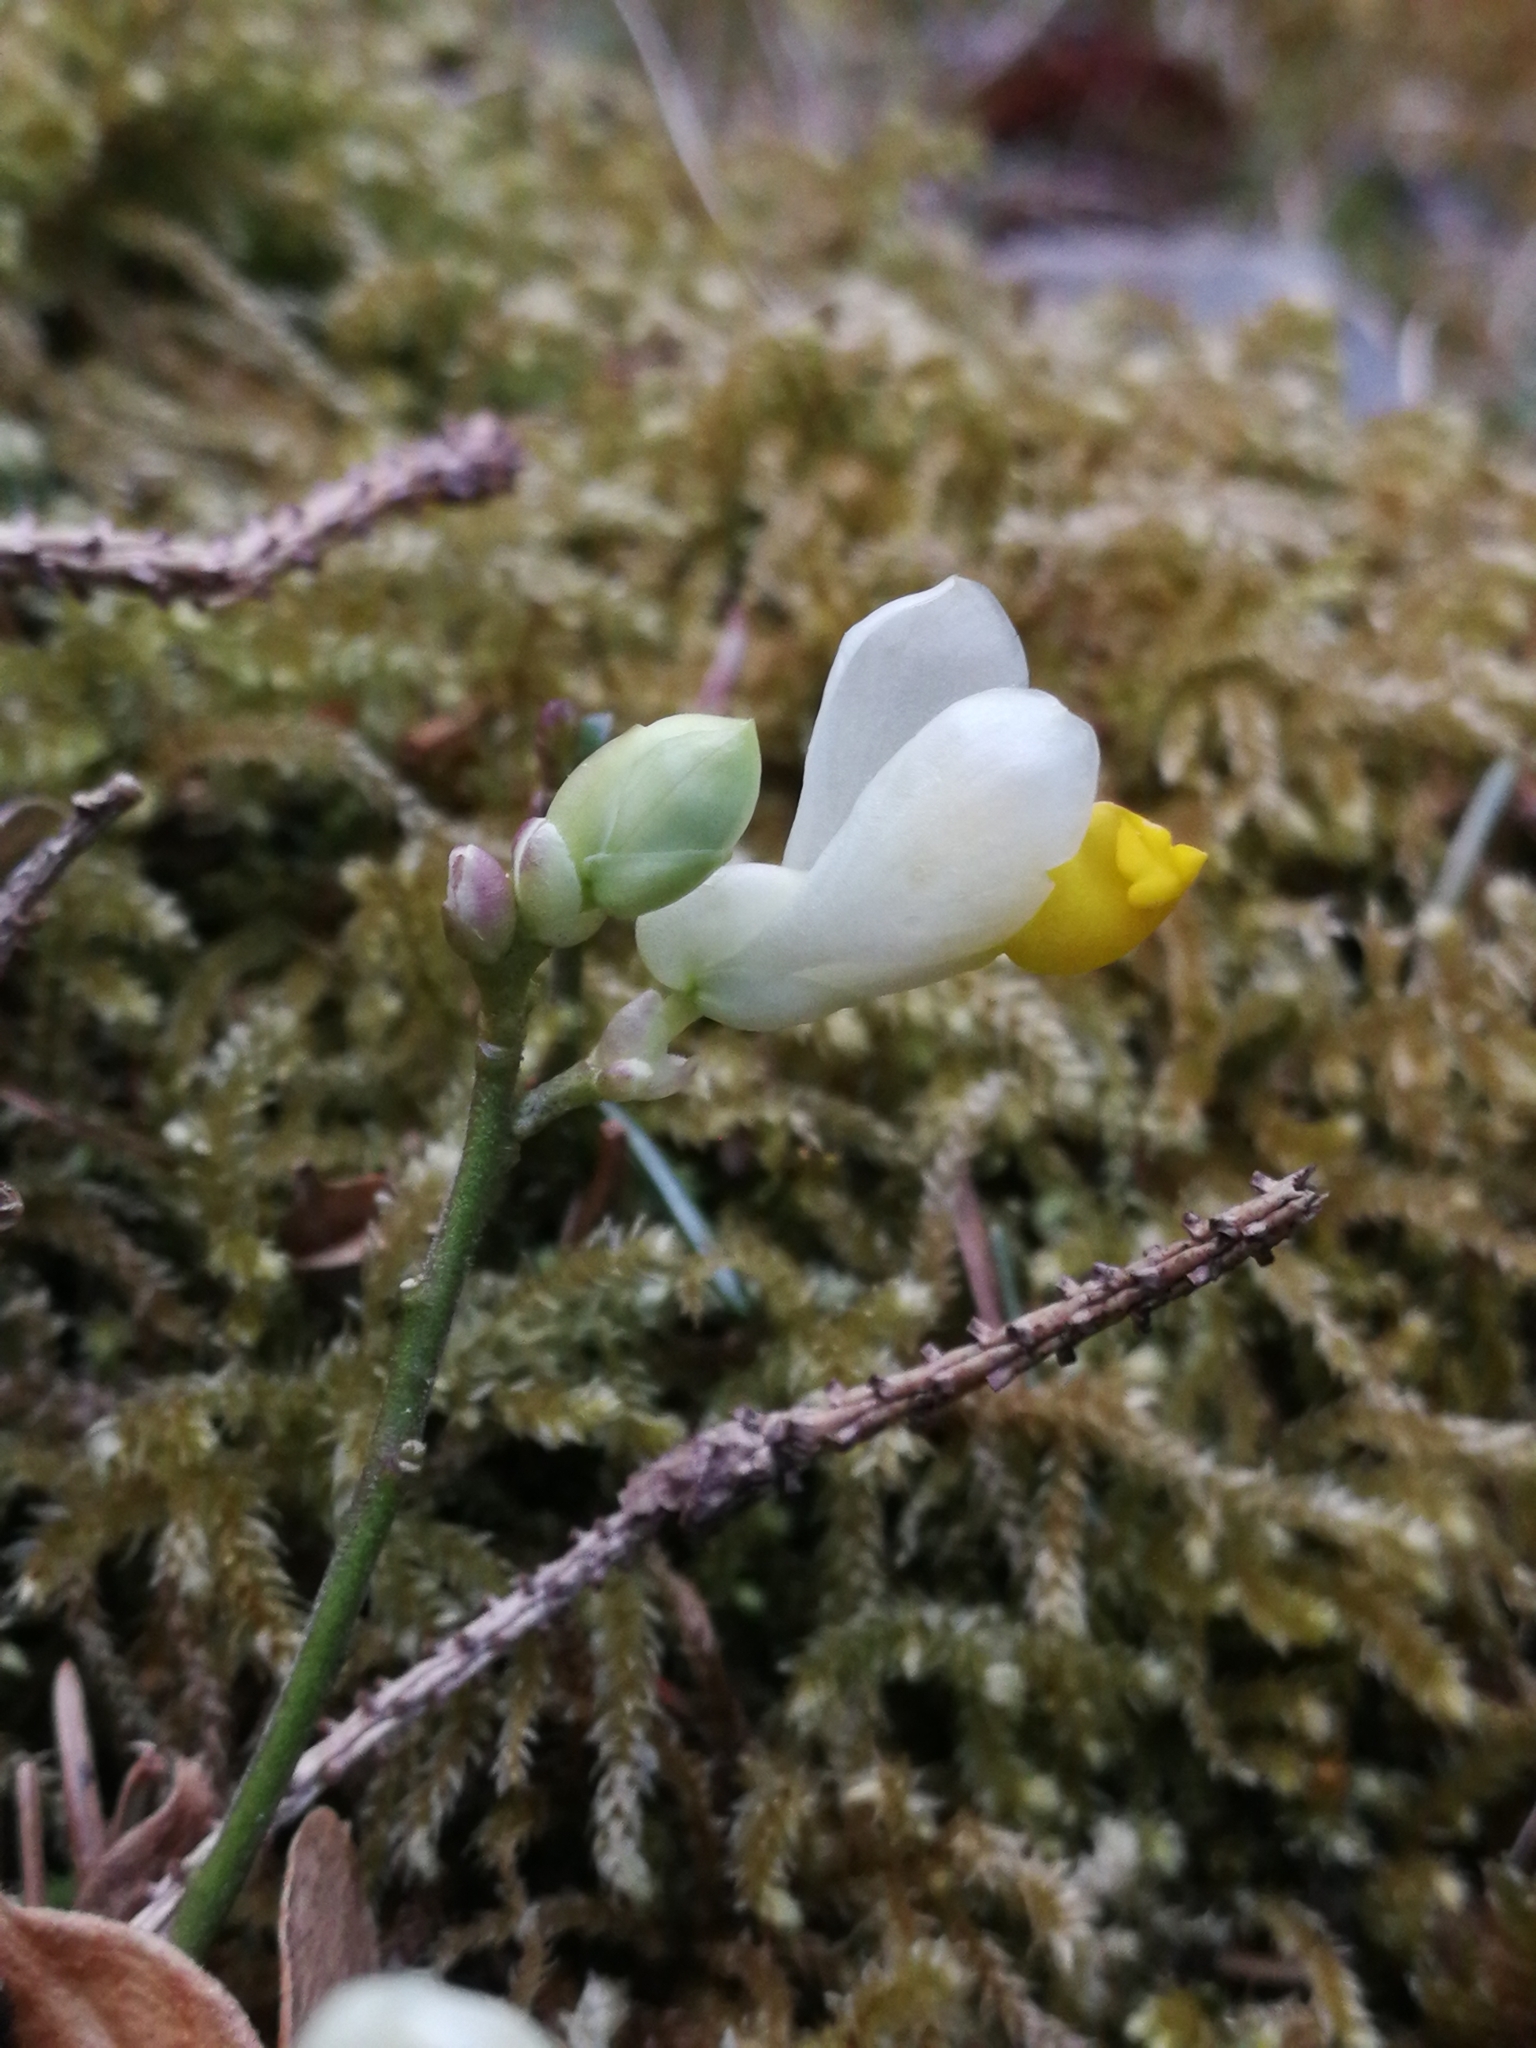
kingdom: Plantae
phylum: Tracheophyta
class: Magnoliopsida
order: Fabales
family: Polygalaceae
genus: Polygaloides
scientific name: Polygaloides chamaebuxus
